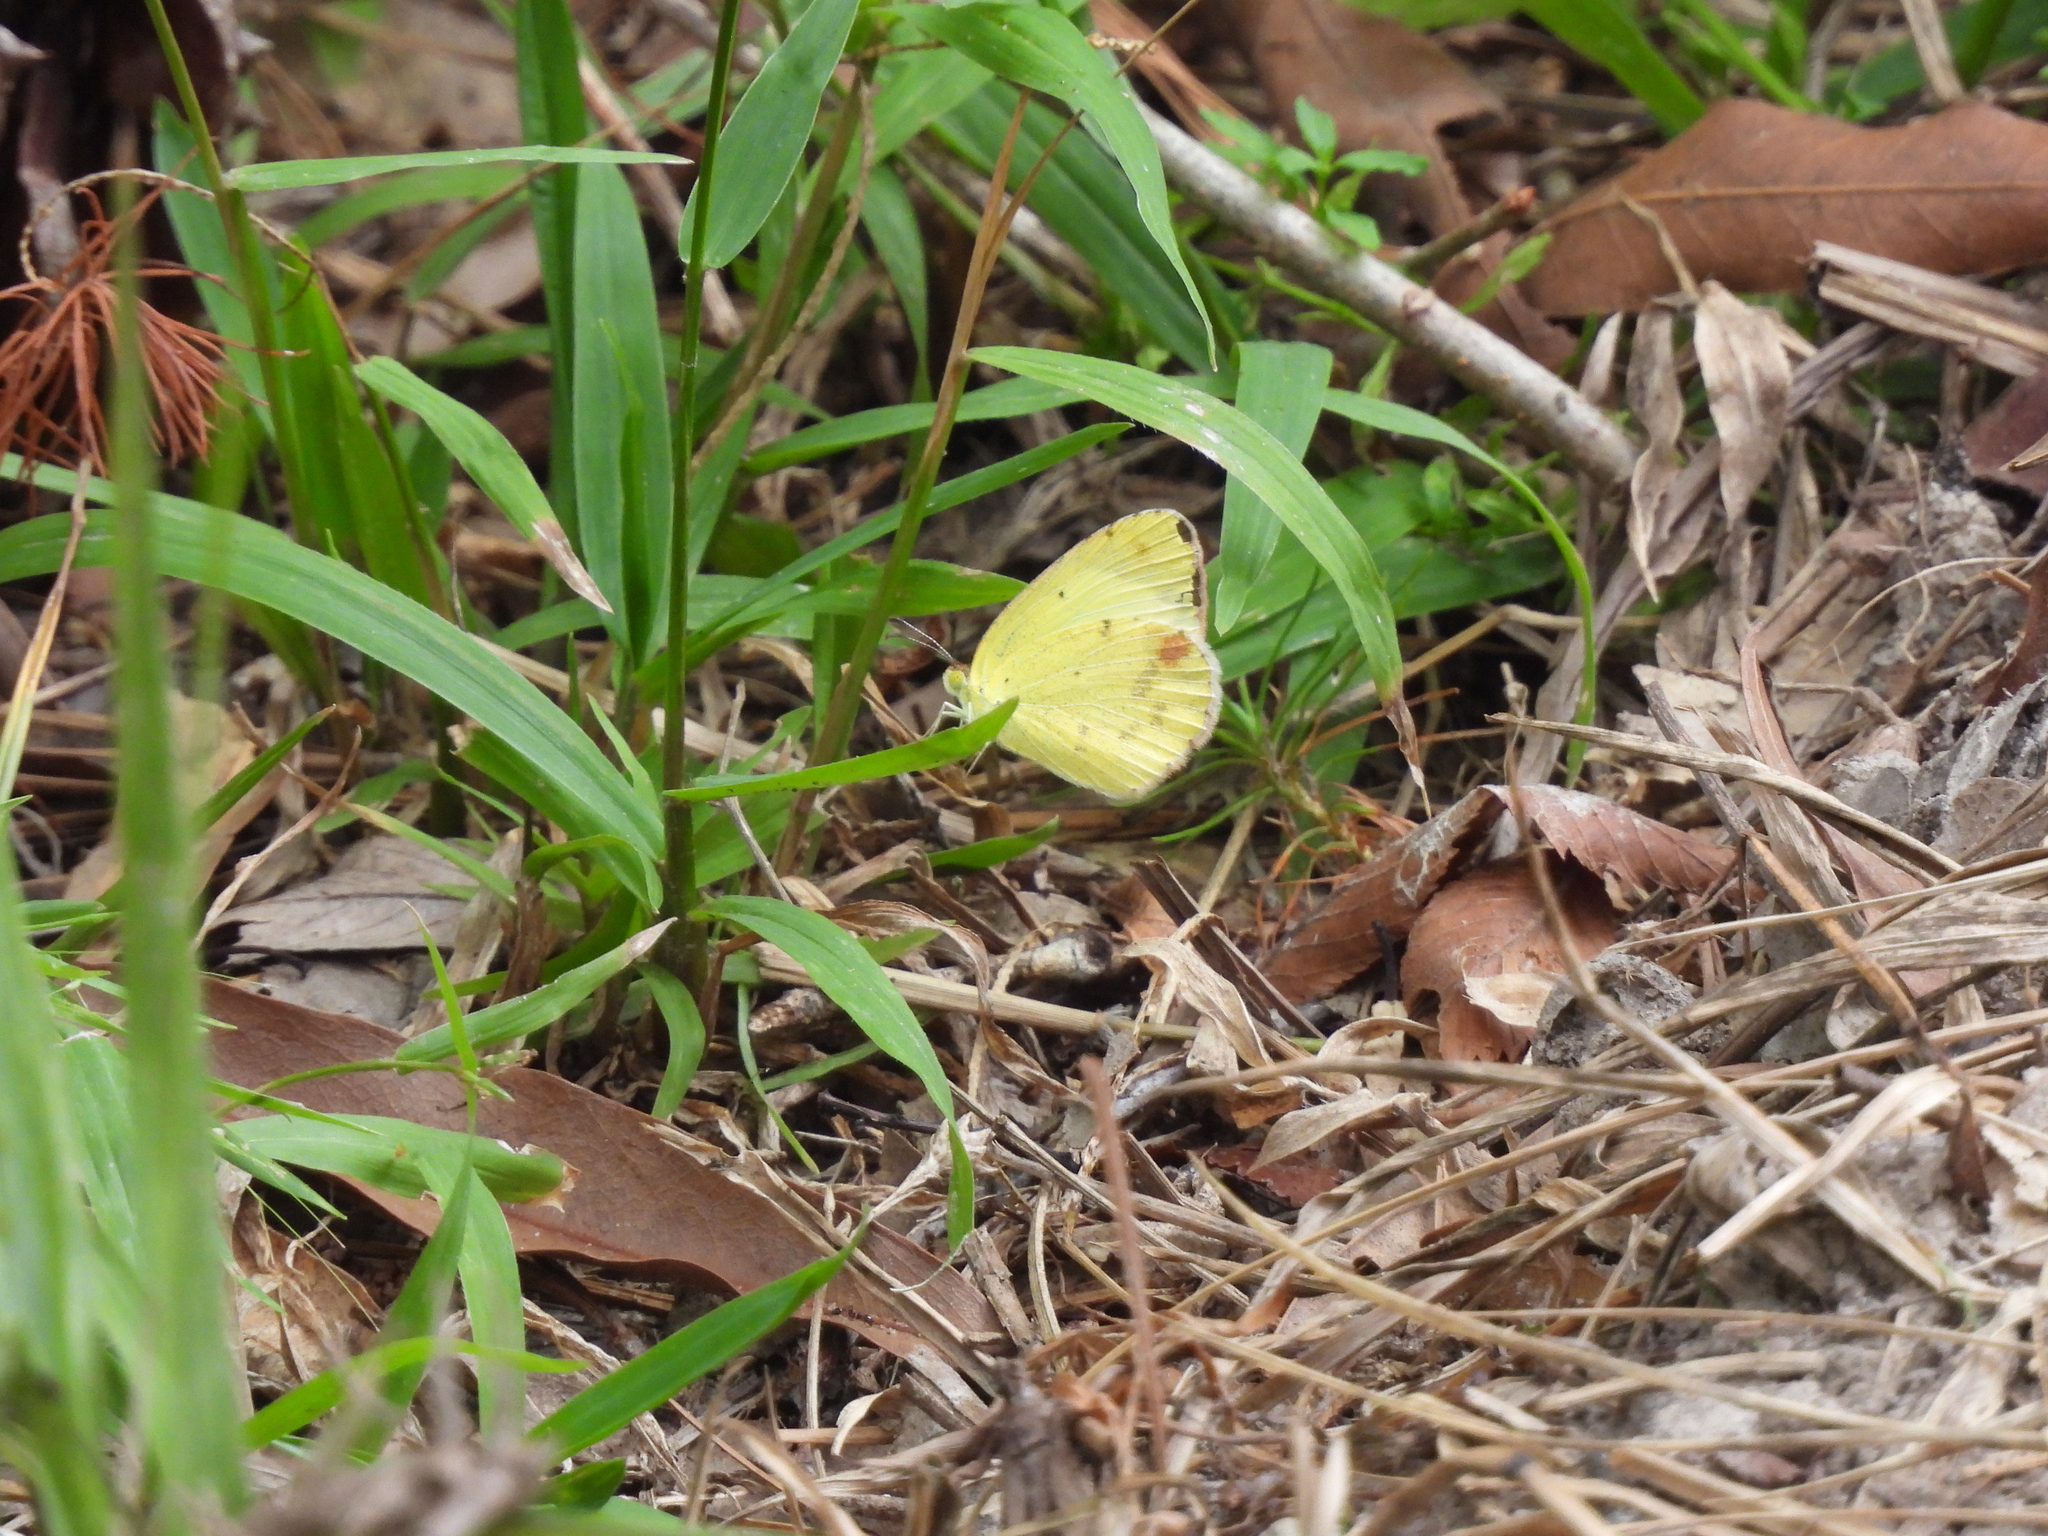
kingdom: Animalia
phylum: Arthropoda
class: Insecta
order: Lepidoptera
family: Pieridae
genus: Pyrisitia
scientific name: Pyrisitia lisa
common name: Little yellow
